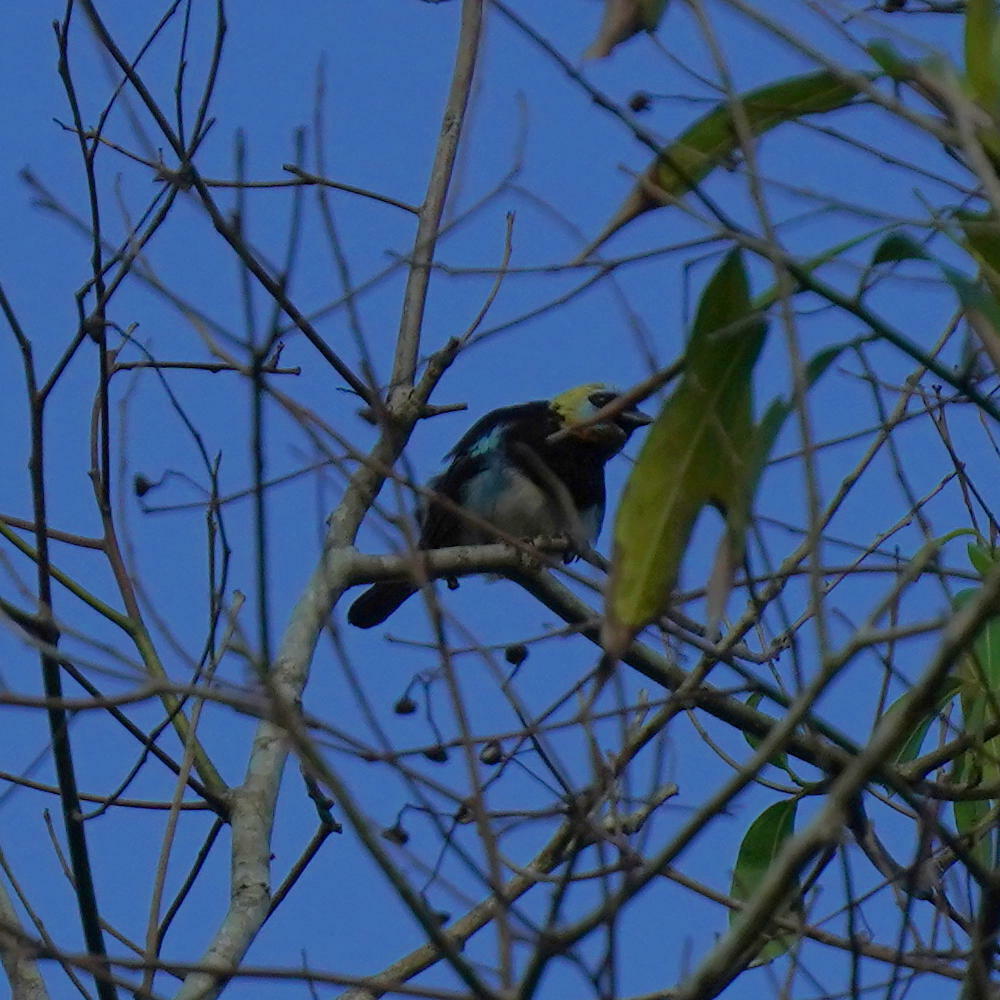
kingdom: Animalia
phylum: Chordata
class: Aves
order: Passeriformes
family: Thraupidae
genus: Stilpnia
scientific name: Stilpnia larvata
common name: Golden-hooded tanager
